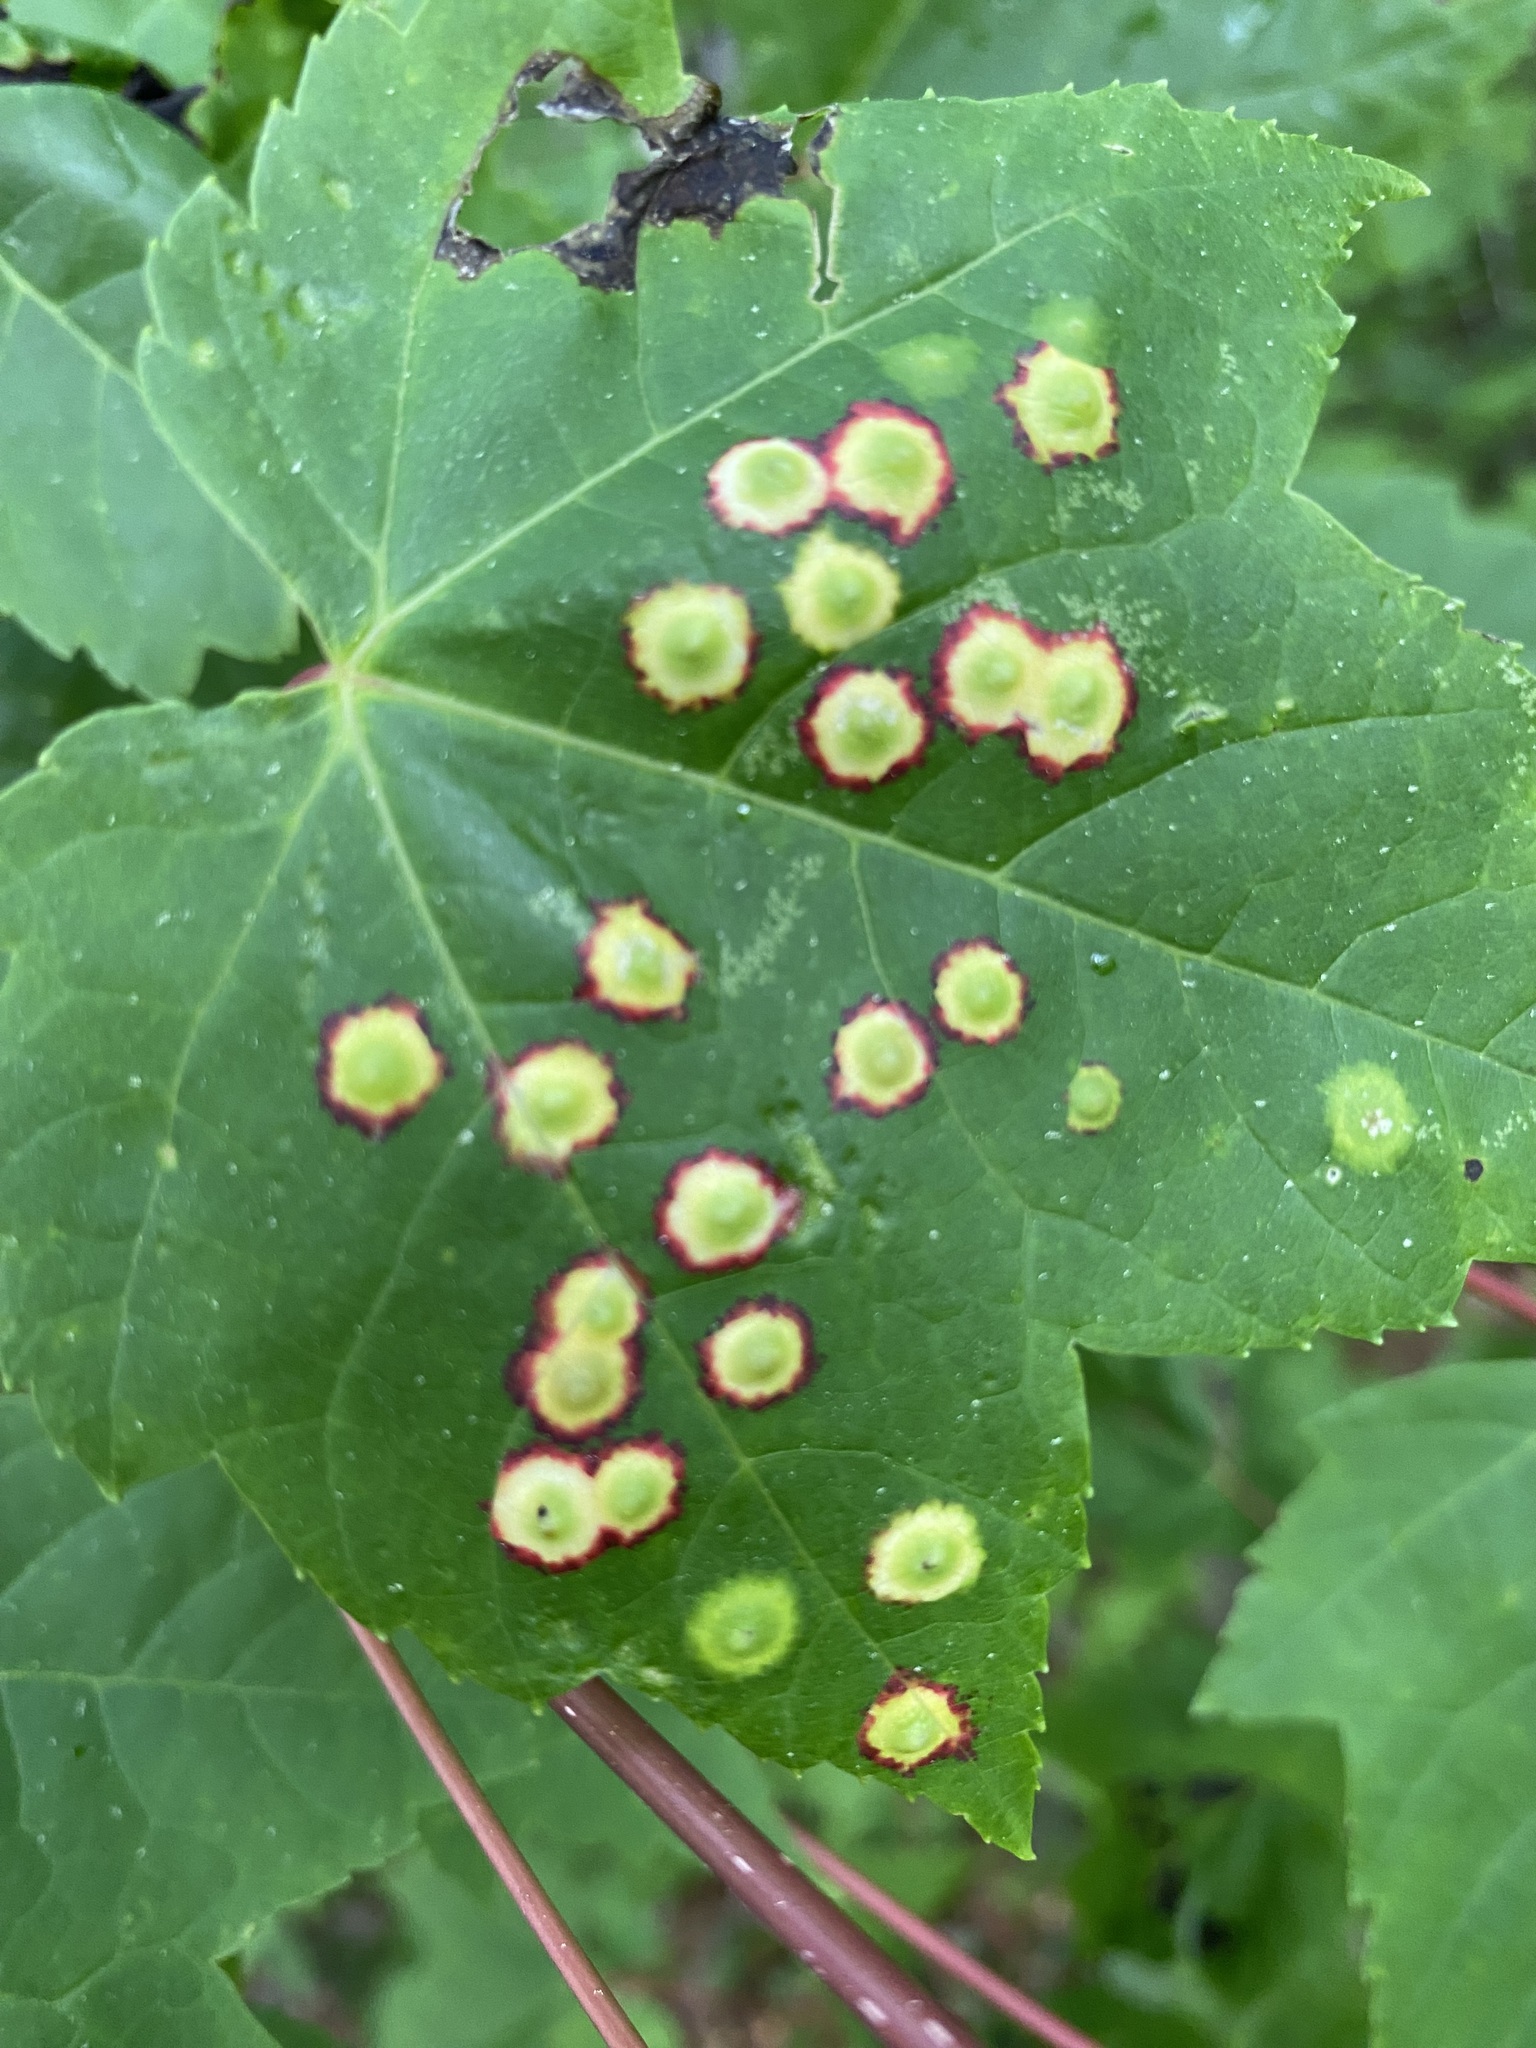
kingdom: Animalia
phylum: Arthropoda
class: Insecta
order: Diptera
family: Cecidomyiidae
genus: Acericecis
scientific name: Acericecis ocellaris
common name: Ocellate gall midge
